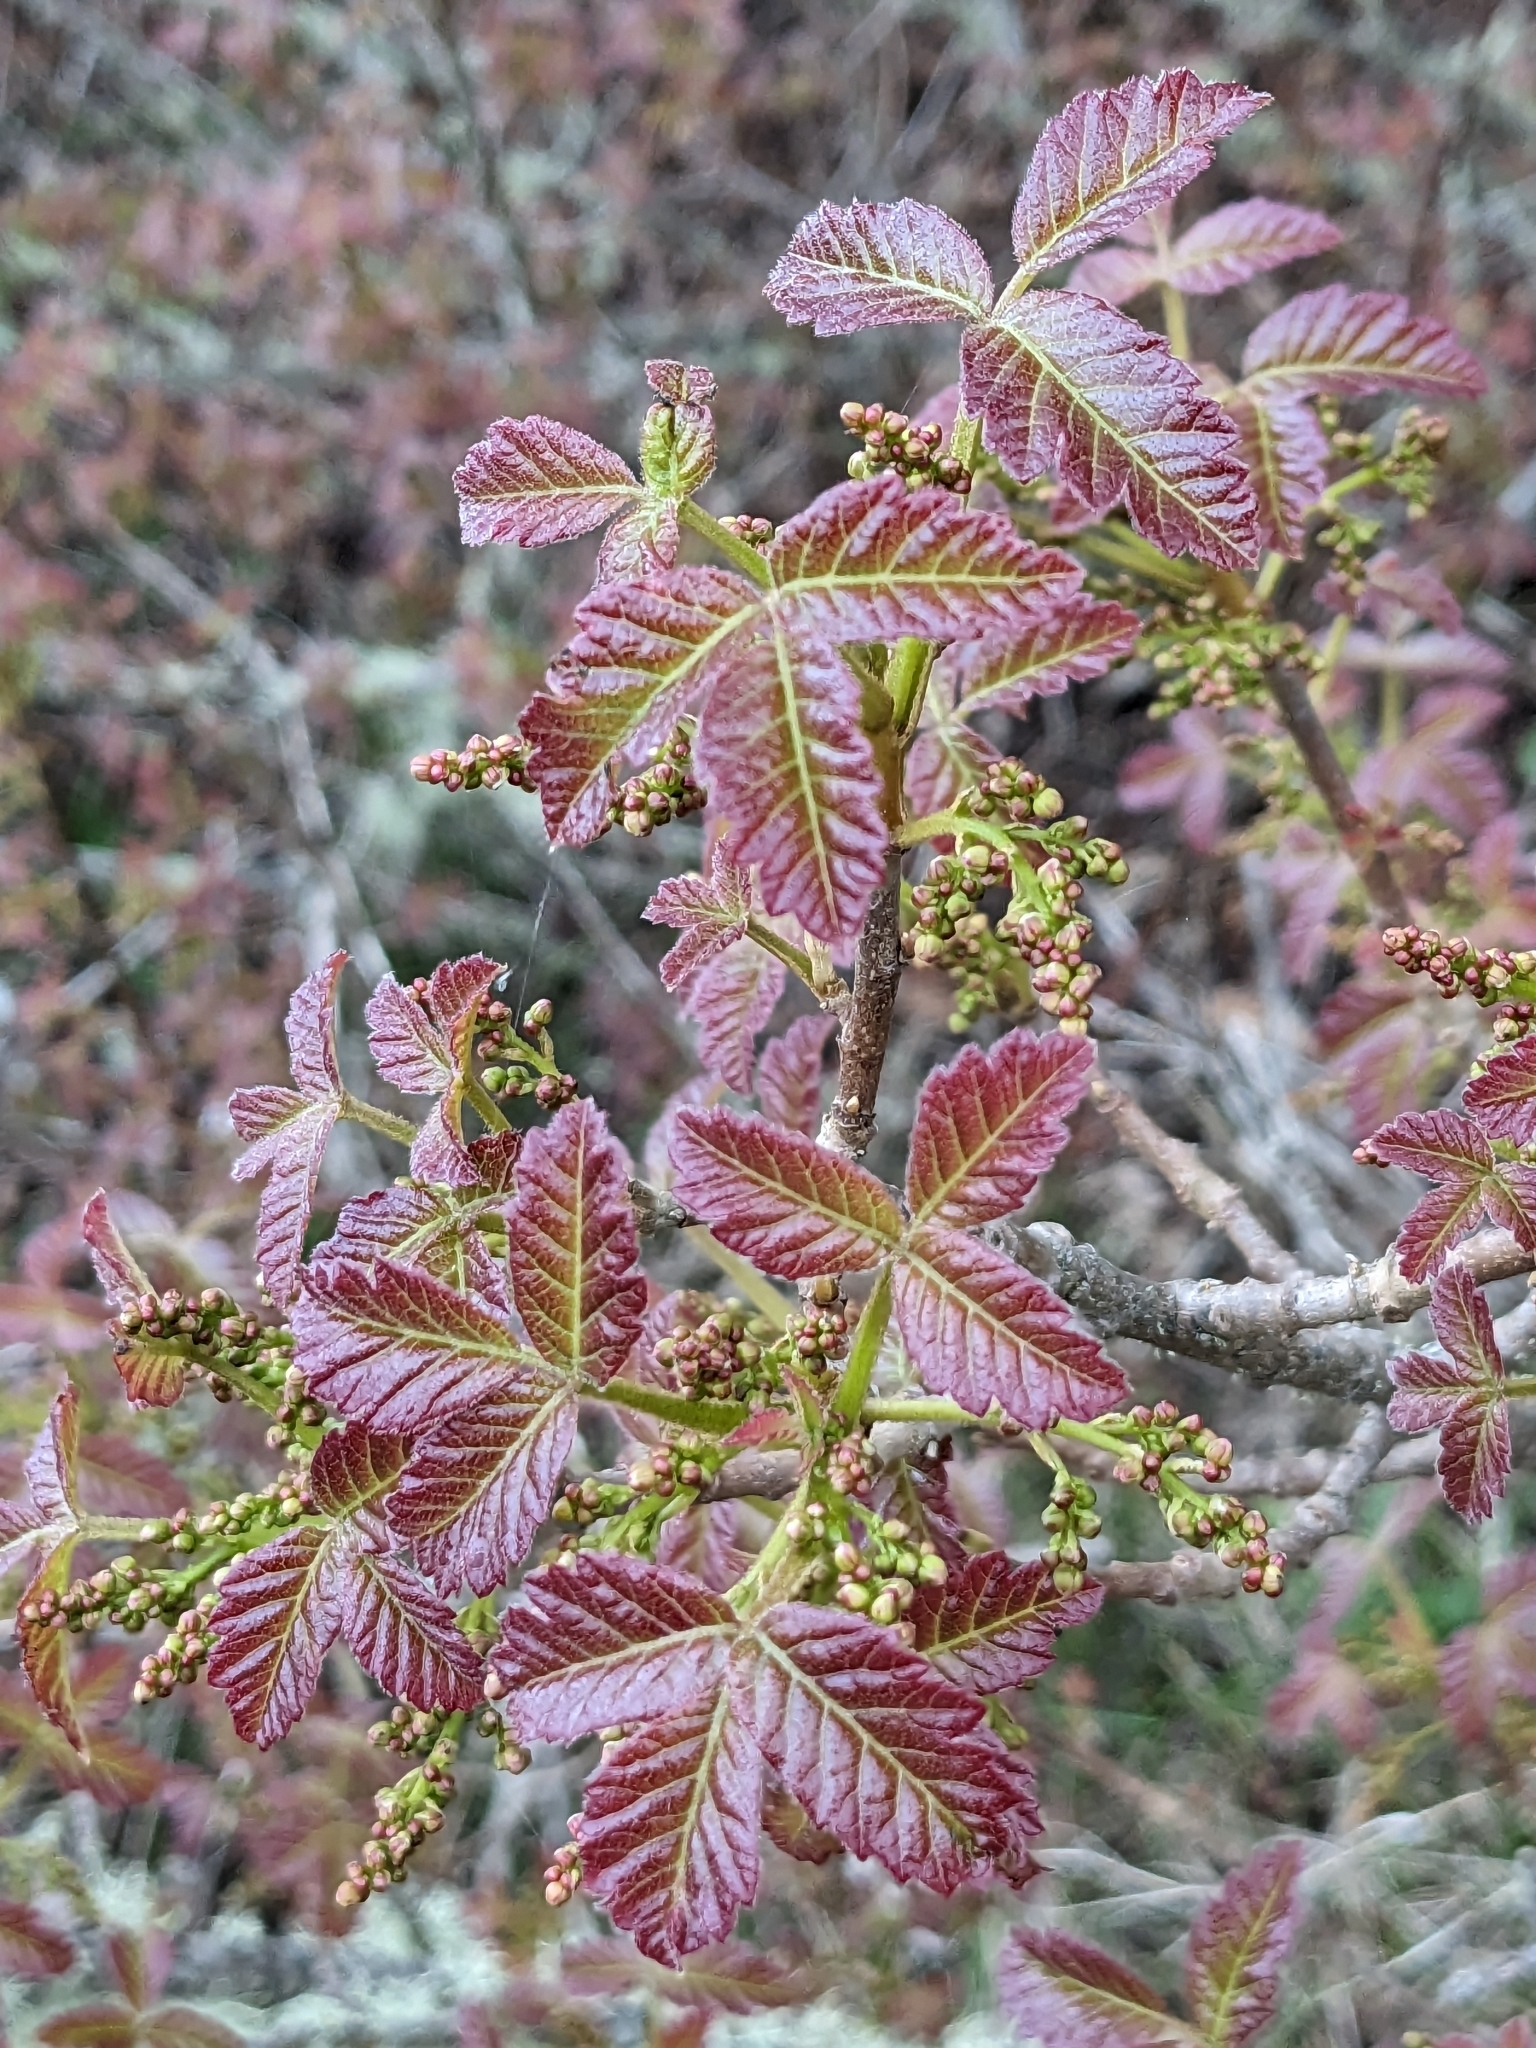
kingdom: Plantae
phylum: Tracheophyta
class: Magnoliopsida
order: Sapindales
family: Anacardiaceae
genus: Toxicodendron
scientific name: Toxicodendron diversilobum
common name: Pacific poison-oak
